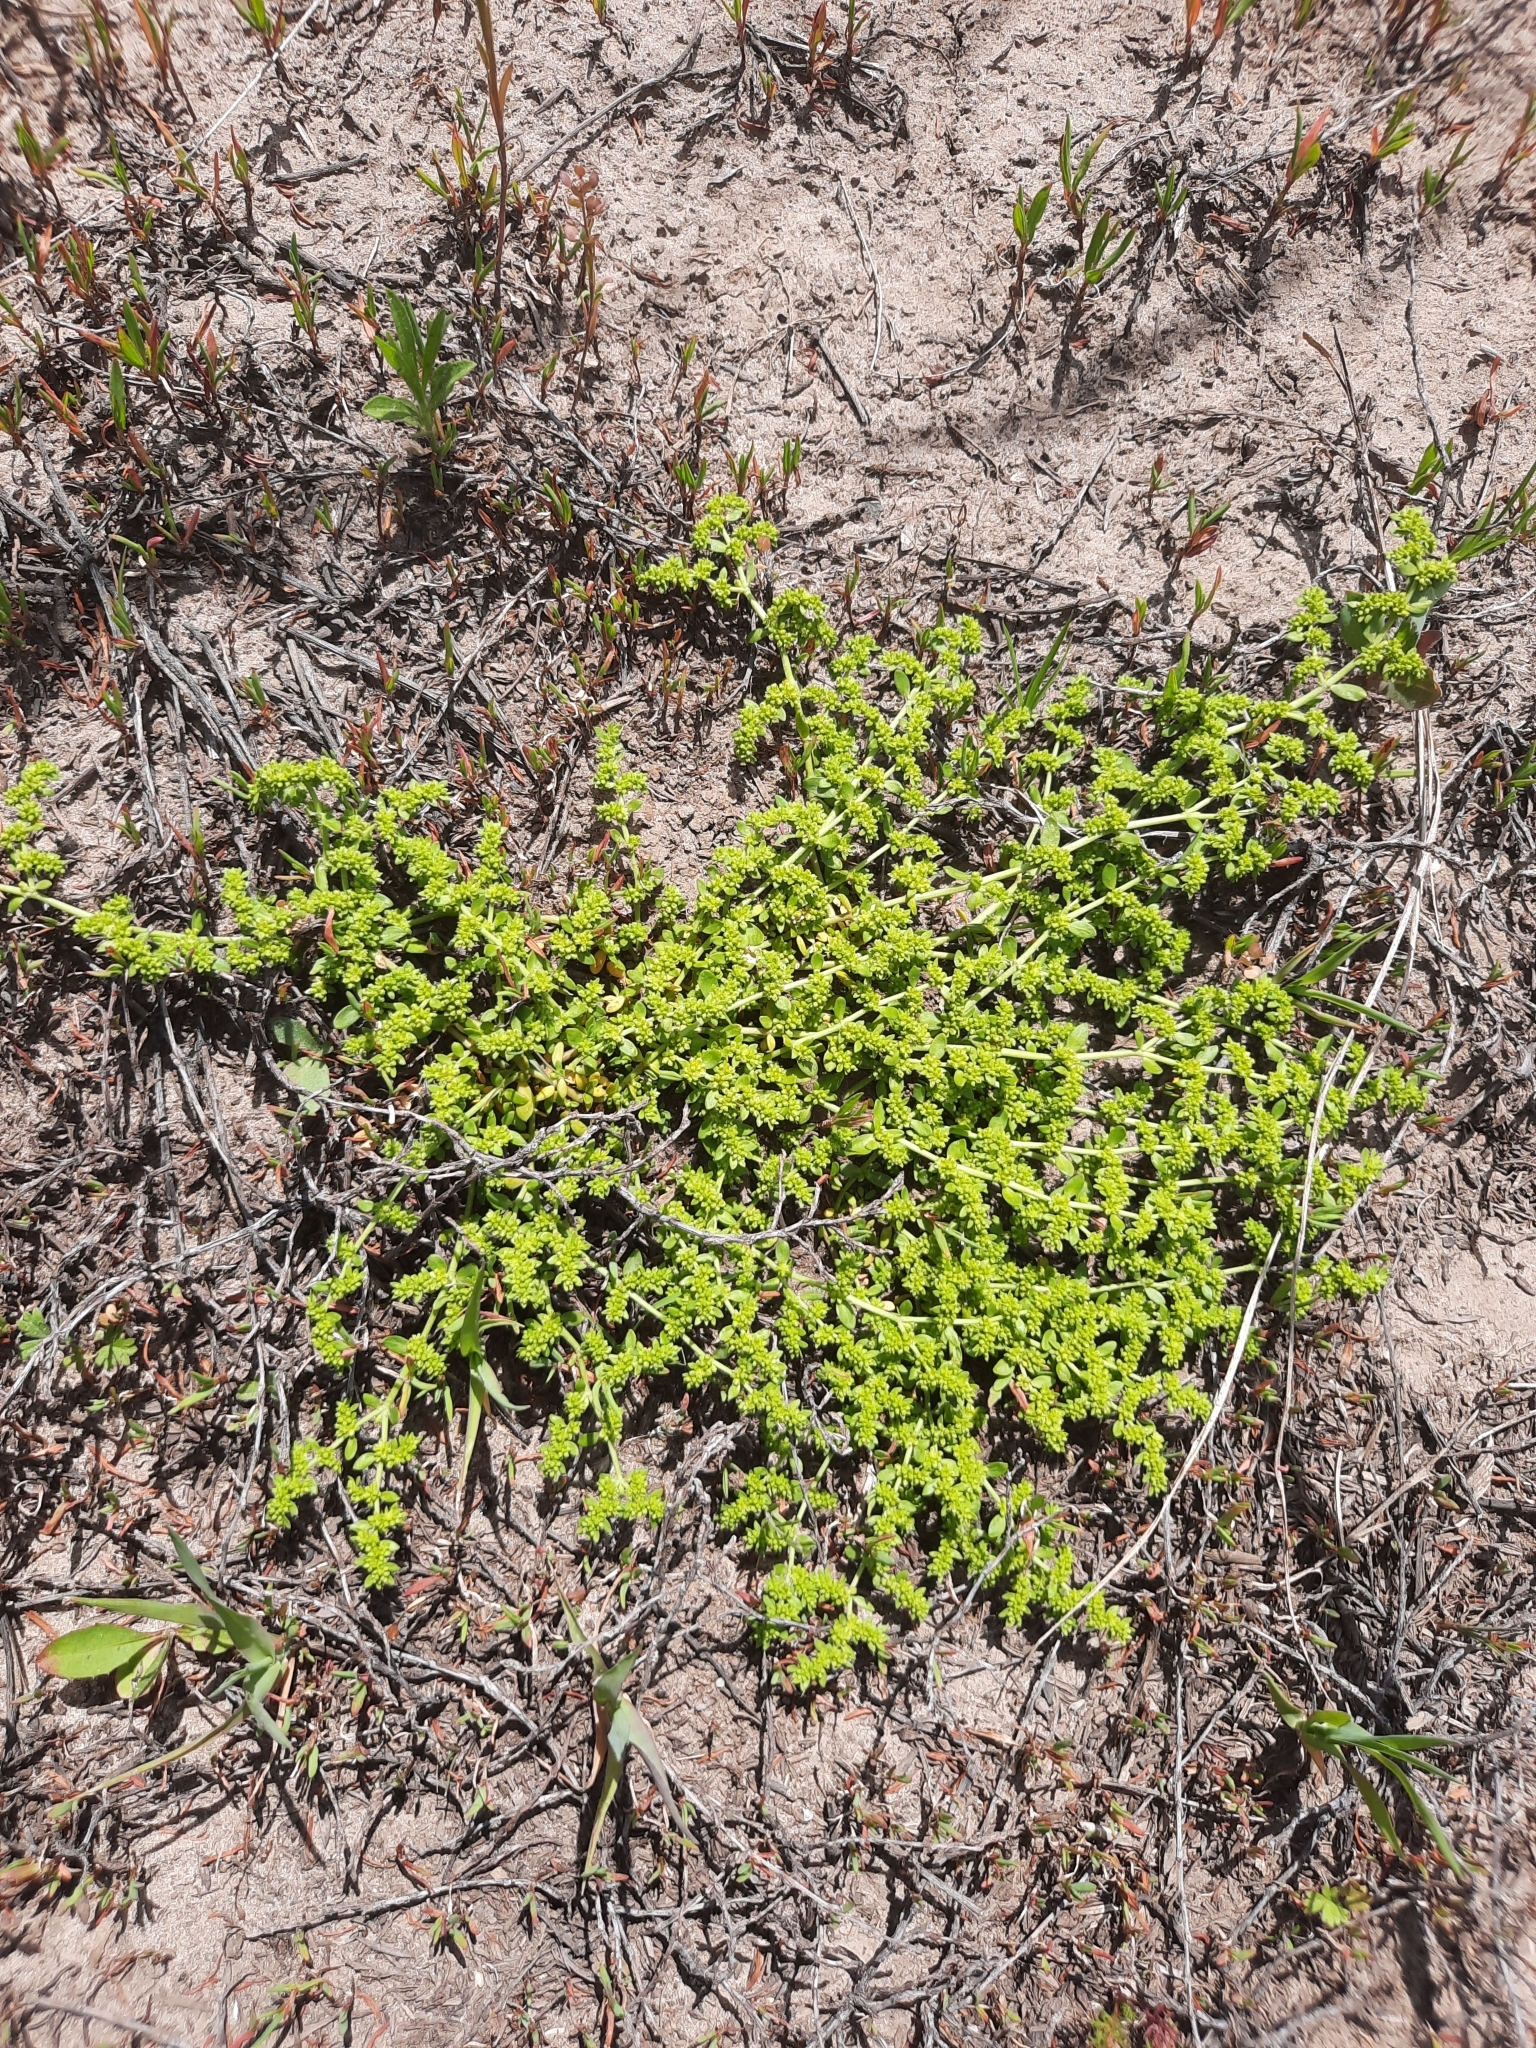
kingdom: Plantae
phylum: Tracheophyta
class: Magnoliopsida
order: Caryophyllales
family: Caryophyllaceae
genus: Herniaria
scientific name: Herniaria glabra
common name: Smooth rupturewort
